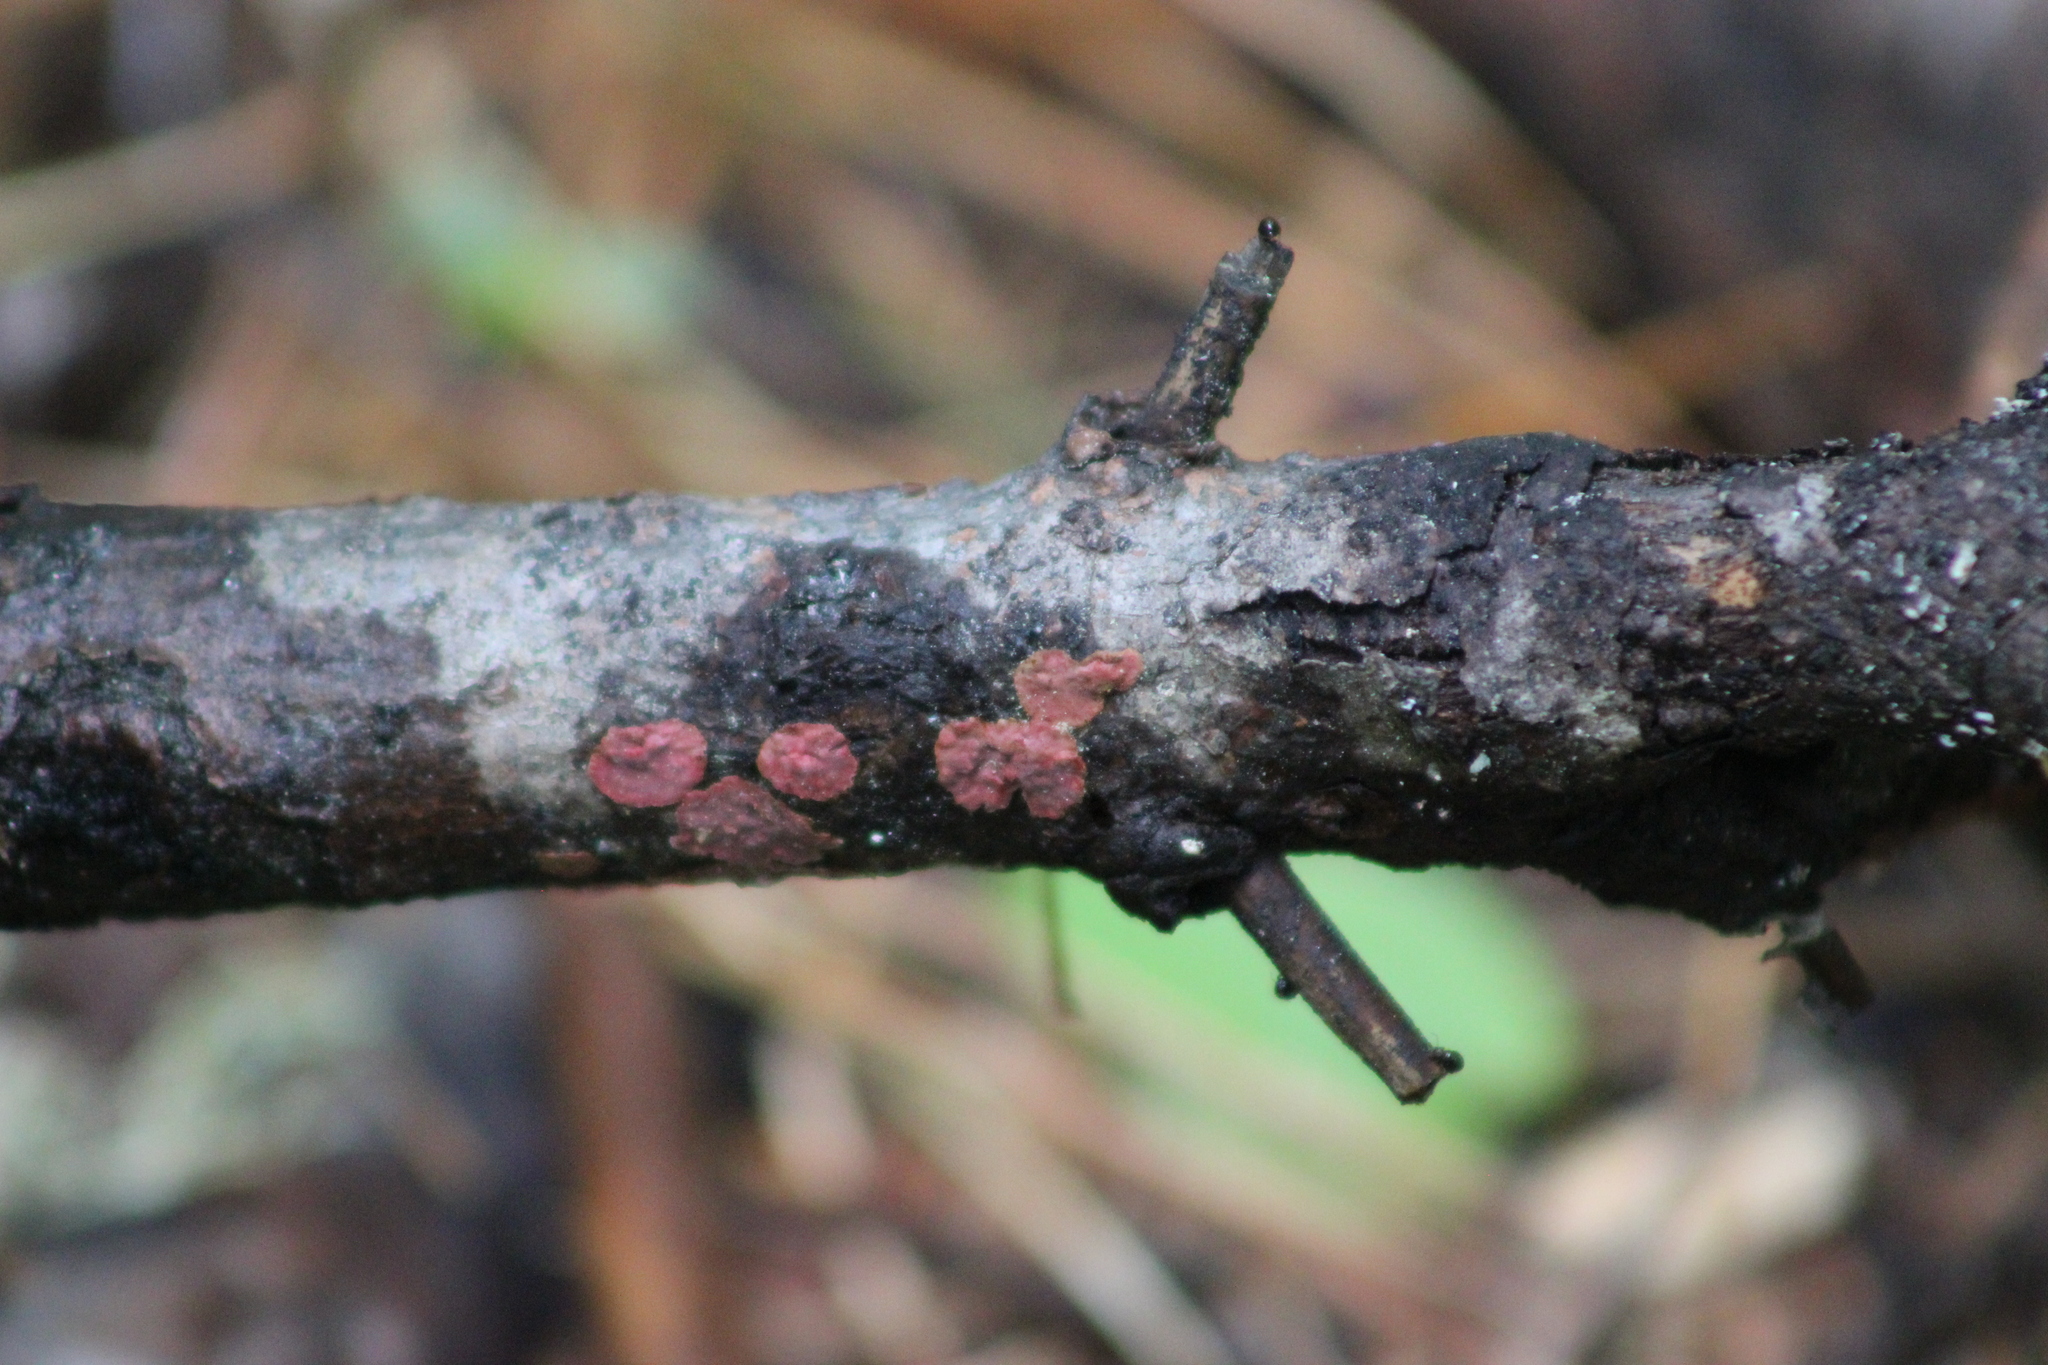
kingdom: Fungi
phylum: Basidiomycota
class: Agaricomycetes
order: Russulales
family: Peniophoraceae
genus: Peniophora
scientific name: Peniophora rufa
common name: Red tree brain fungus
